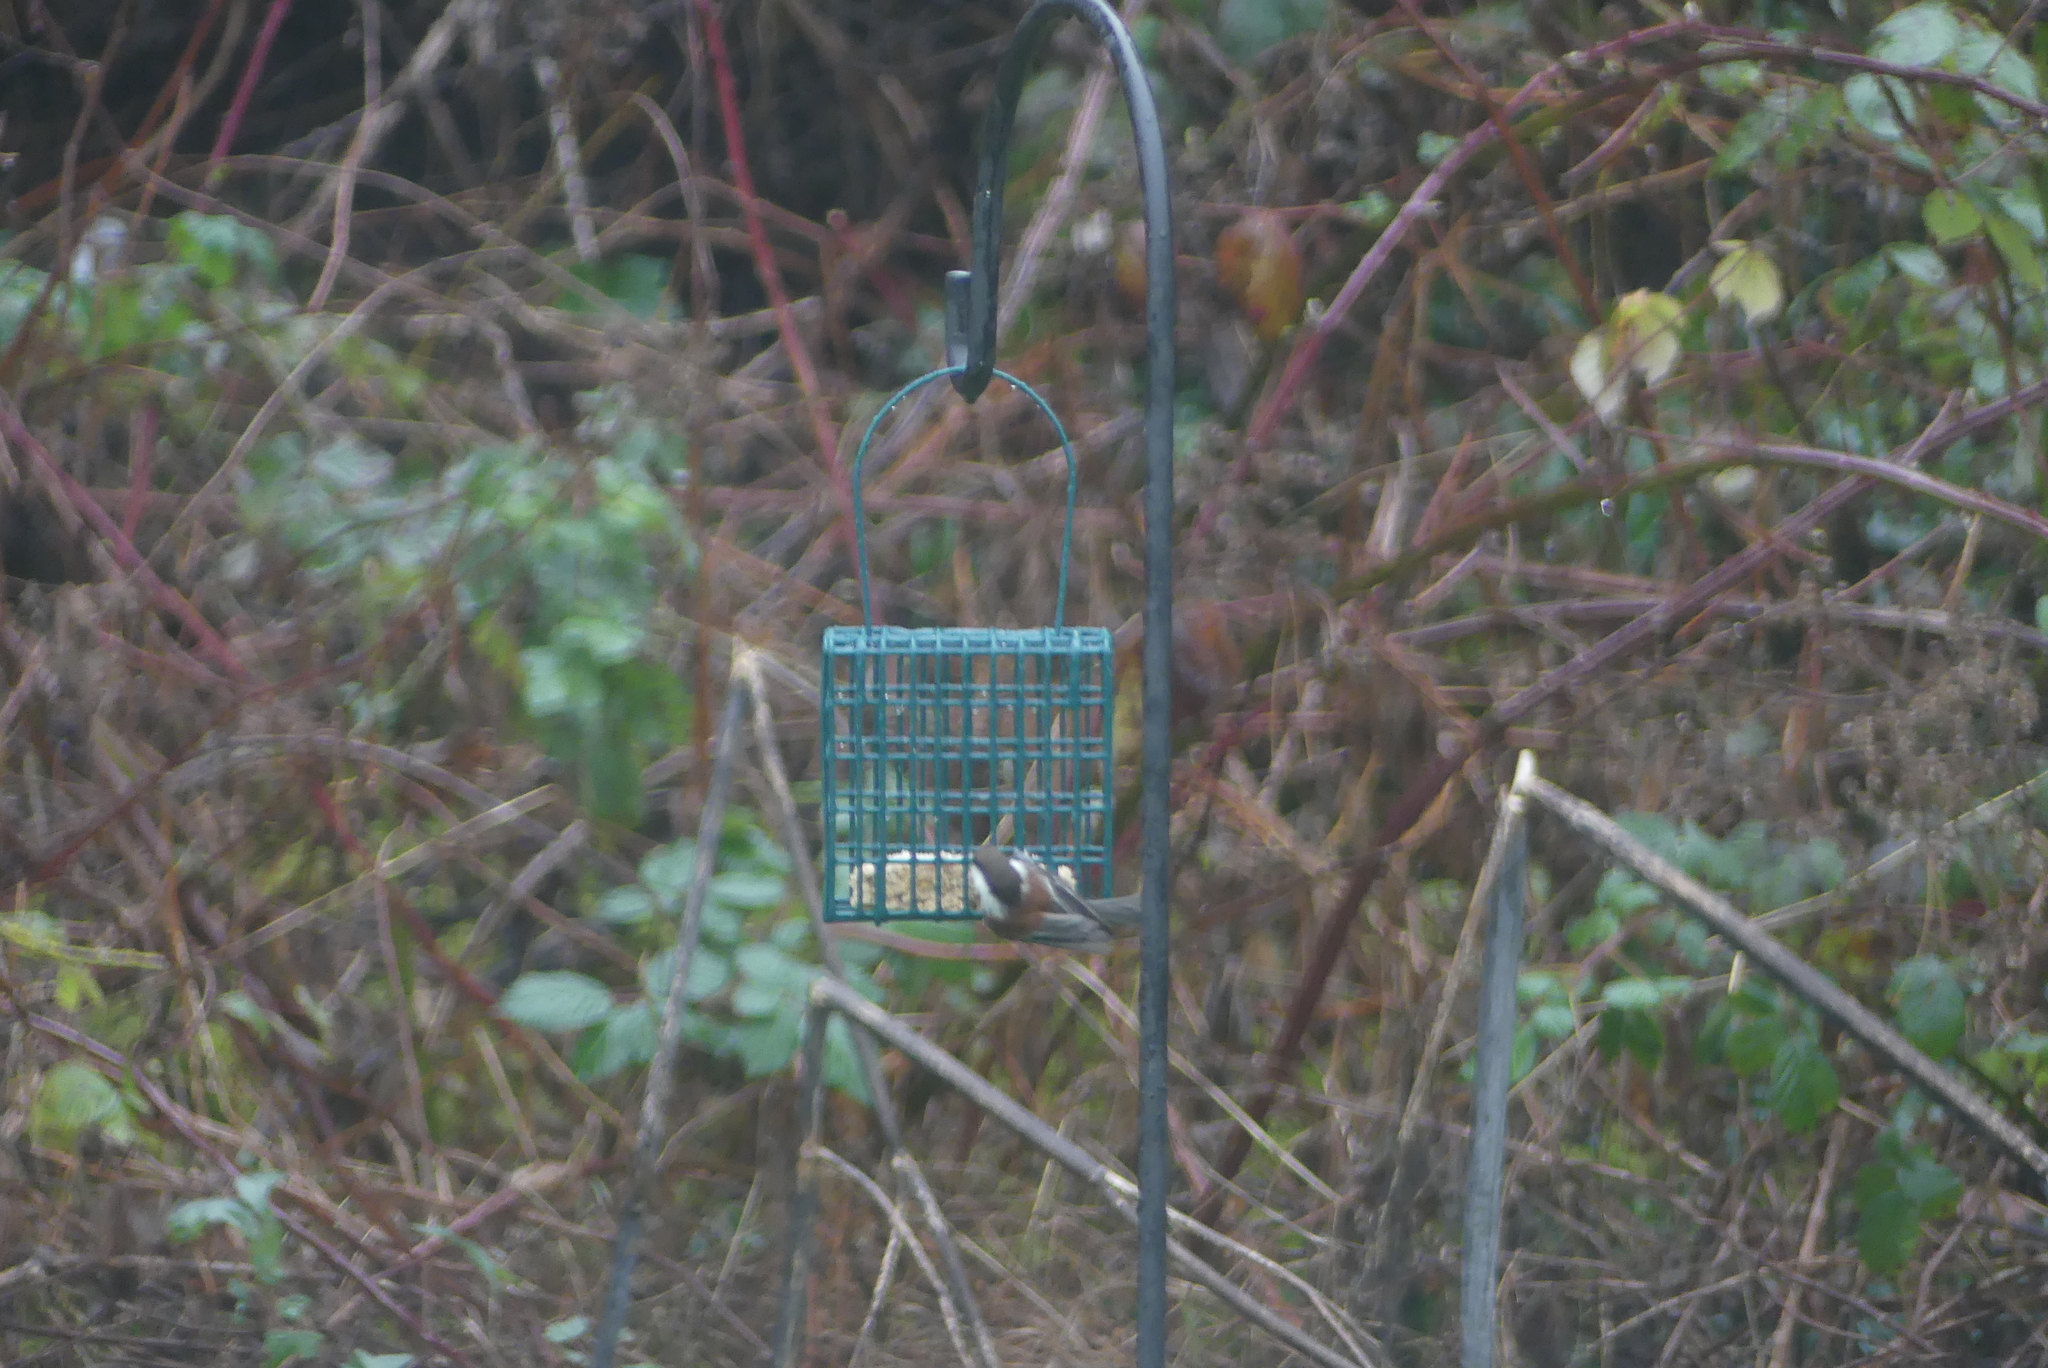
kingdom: Animalia
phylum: Chordata
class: Aves
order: Passeriformes
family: Paridae
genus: Poecile
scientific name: Poecile rufescens
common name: Chestnut-backed chickadee
